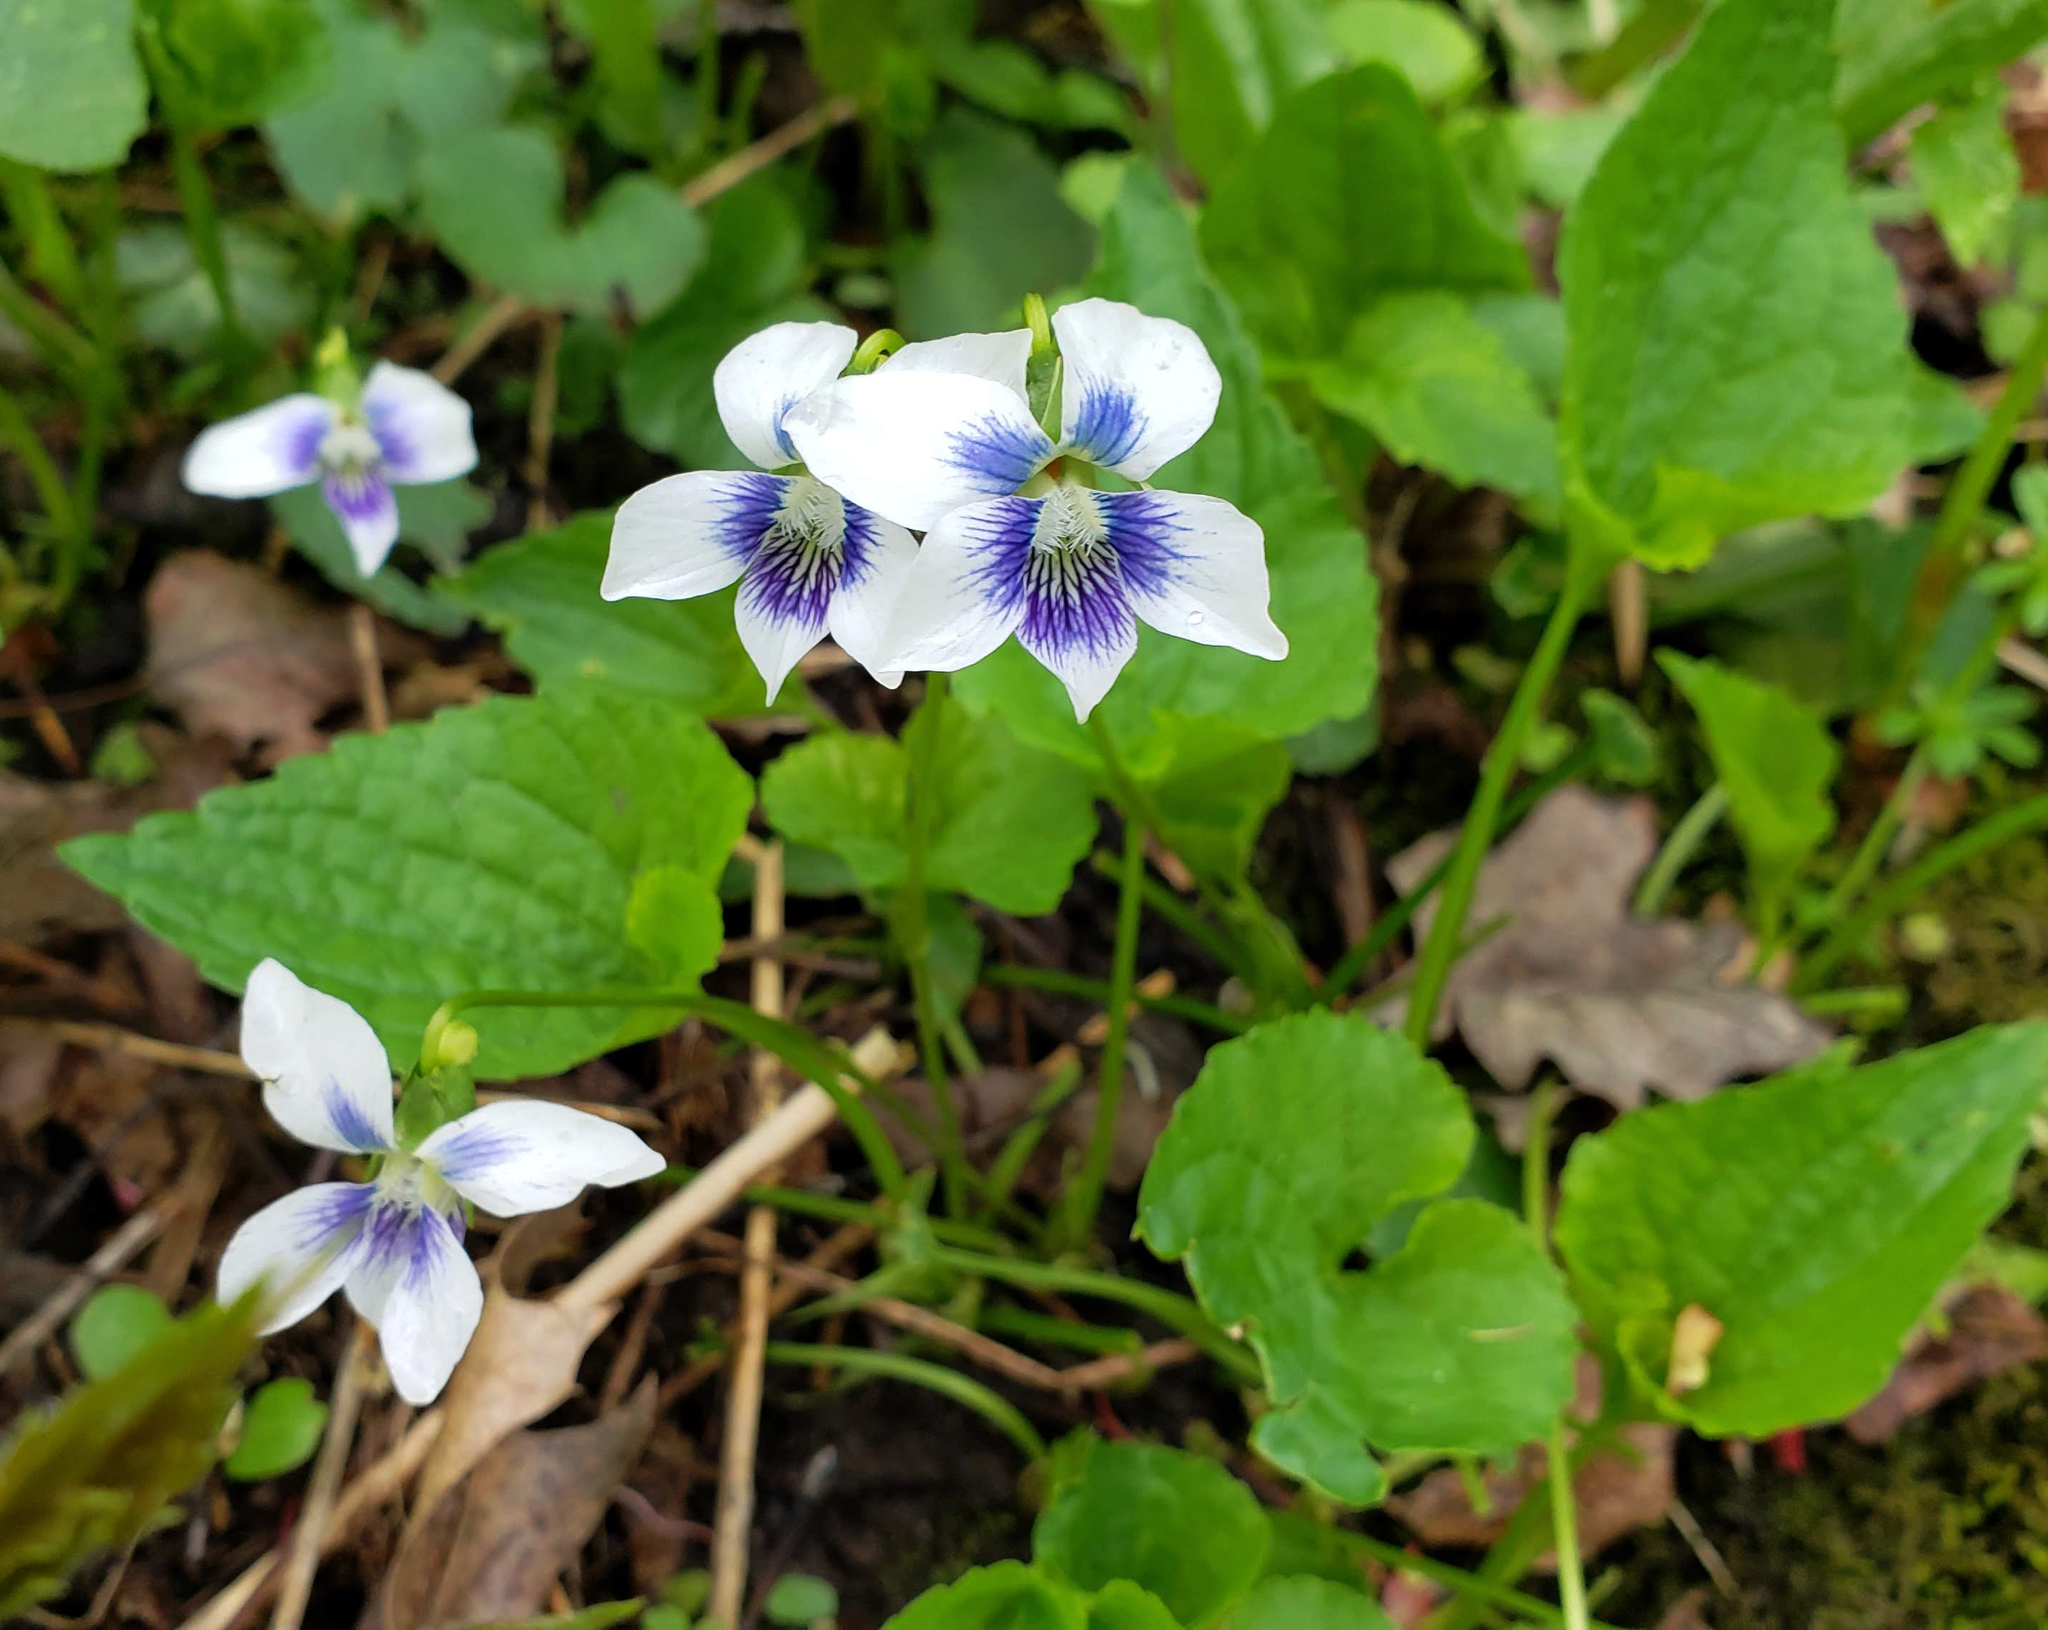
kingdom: Plantae
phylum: Tracheophyta
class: Magnoliopsida
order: Malpighiales
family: Violaceae
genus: Viola
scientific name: Viola sororia
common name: Dooryard violet
